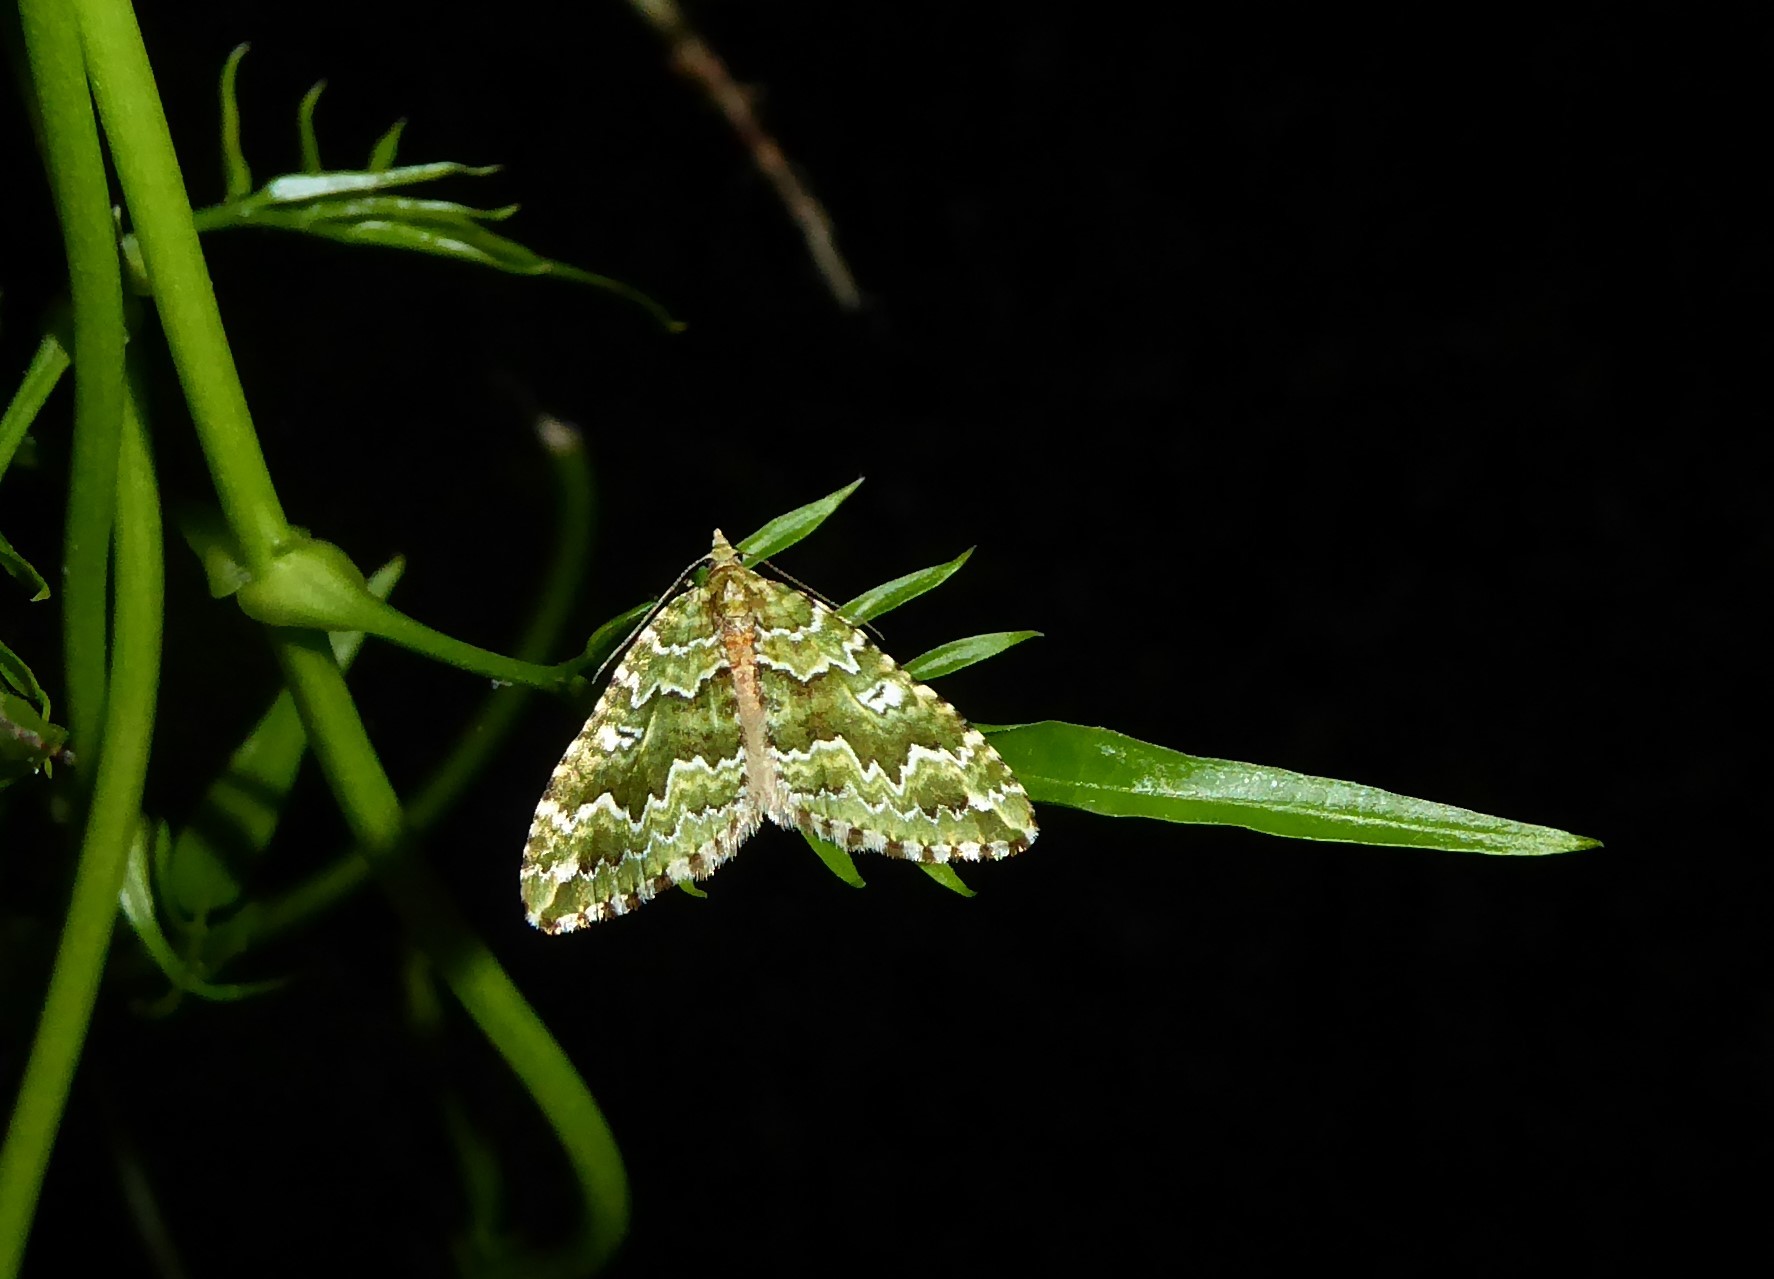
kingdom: Animalia
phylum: Arthropoda
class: Insecta
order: Lepidoptera
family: Geometridae
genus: Asaphodes
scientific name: Asaphodes beata
